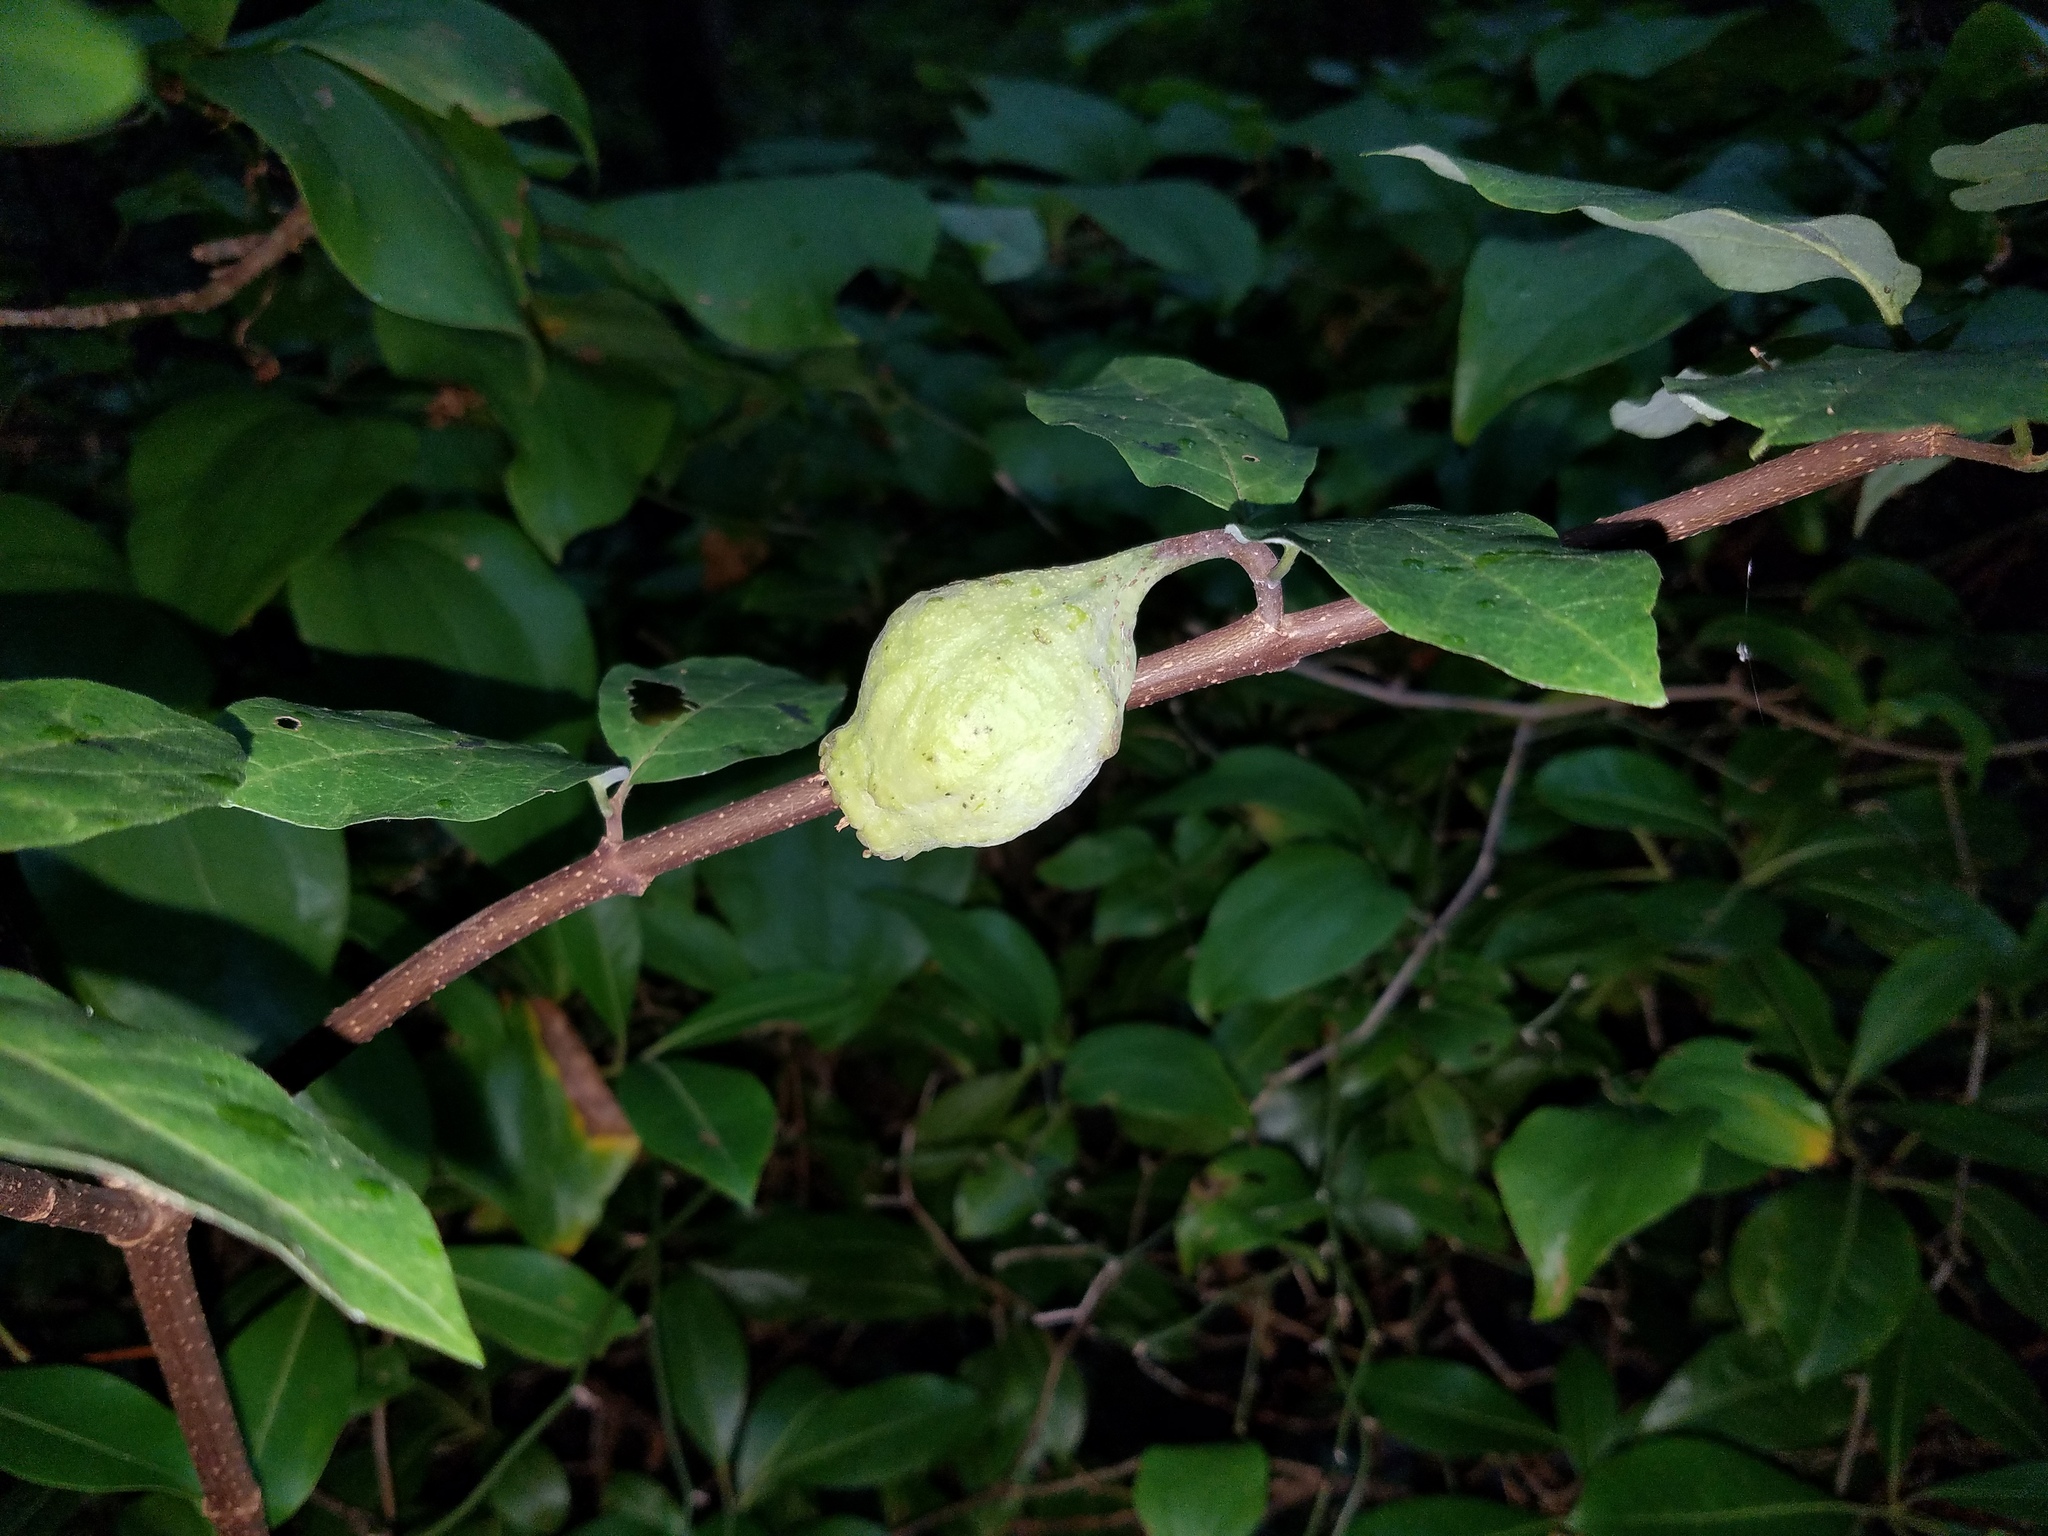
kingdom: Plantae
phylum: Tracheophyta
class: Magnoliopsida
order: Laurales
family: Calycanthaceae
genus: Calycanthus
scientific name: Calycanthus floridus
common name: Carolina-allspice
